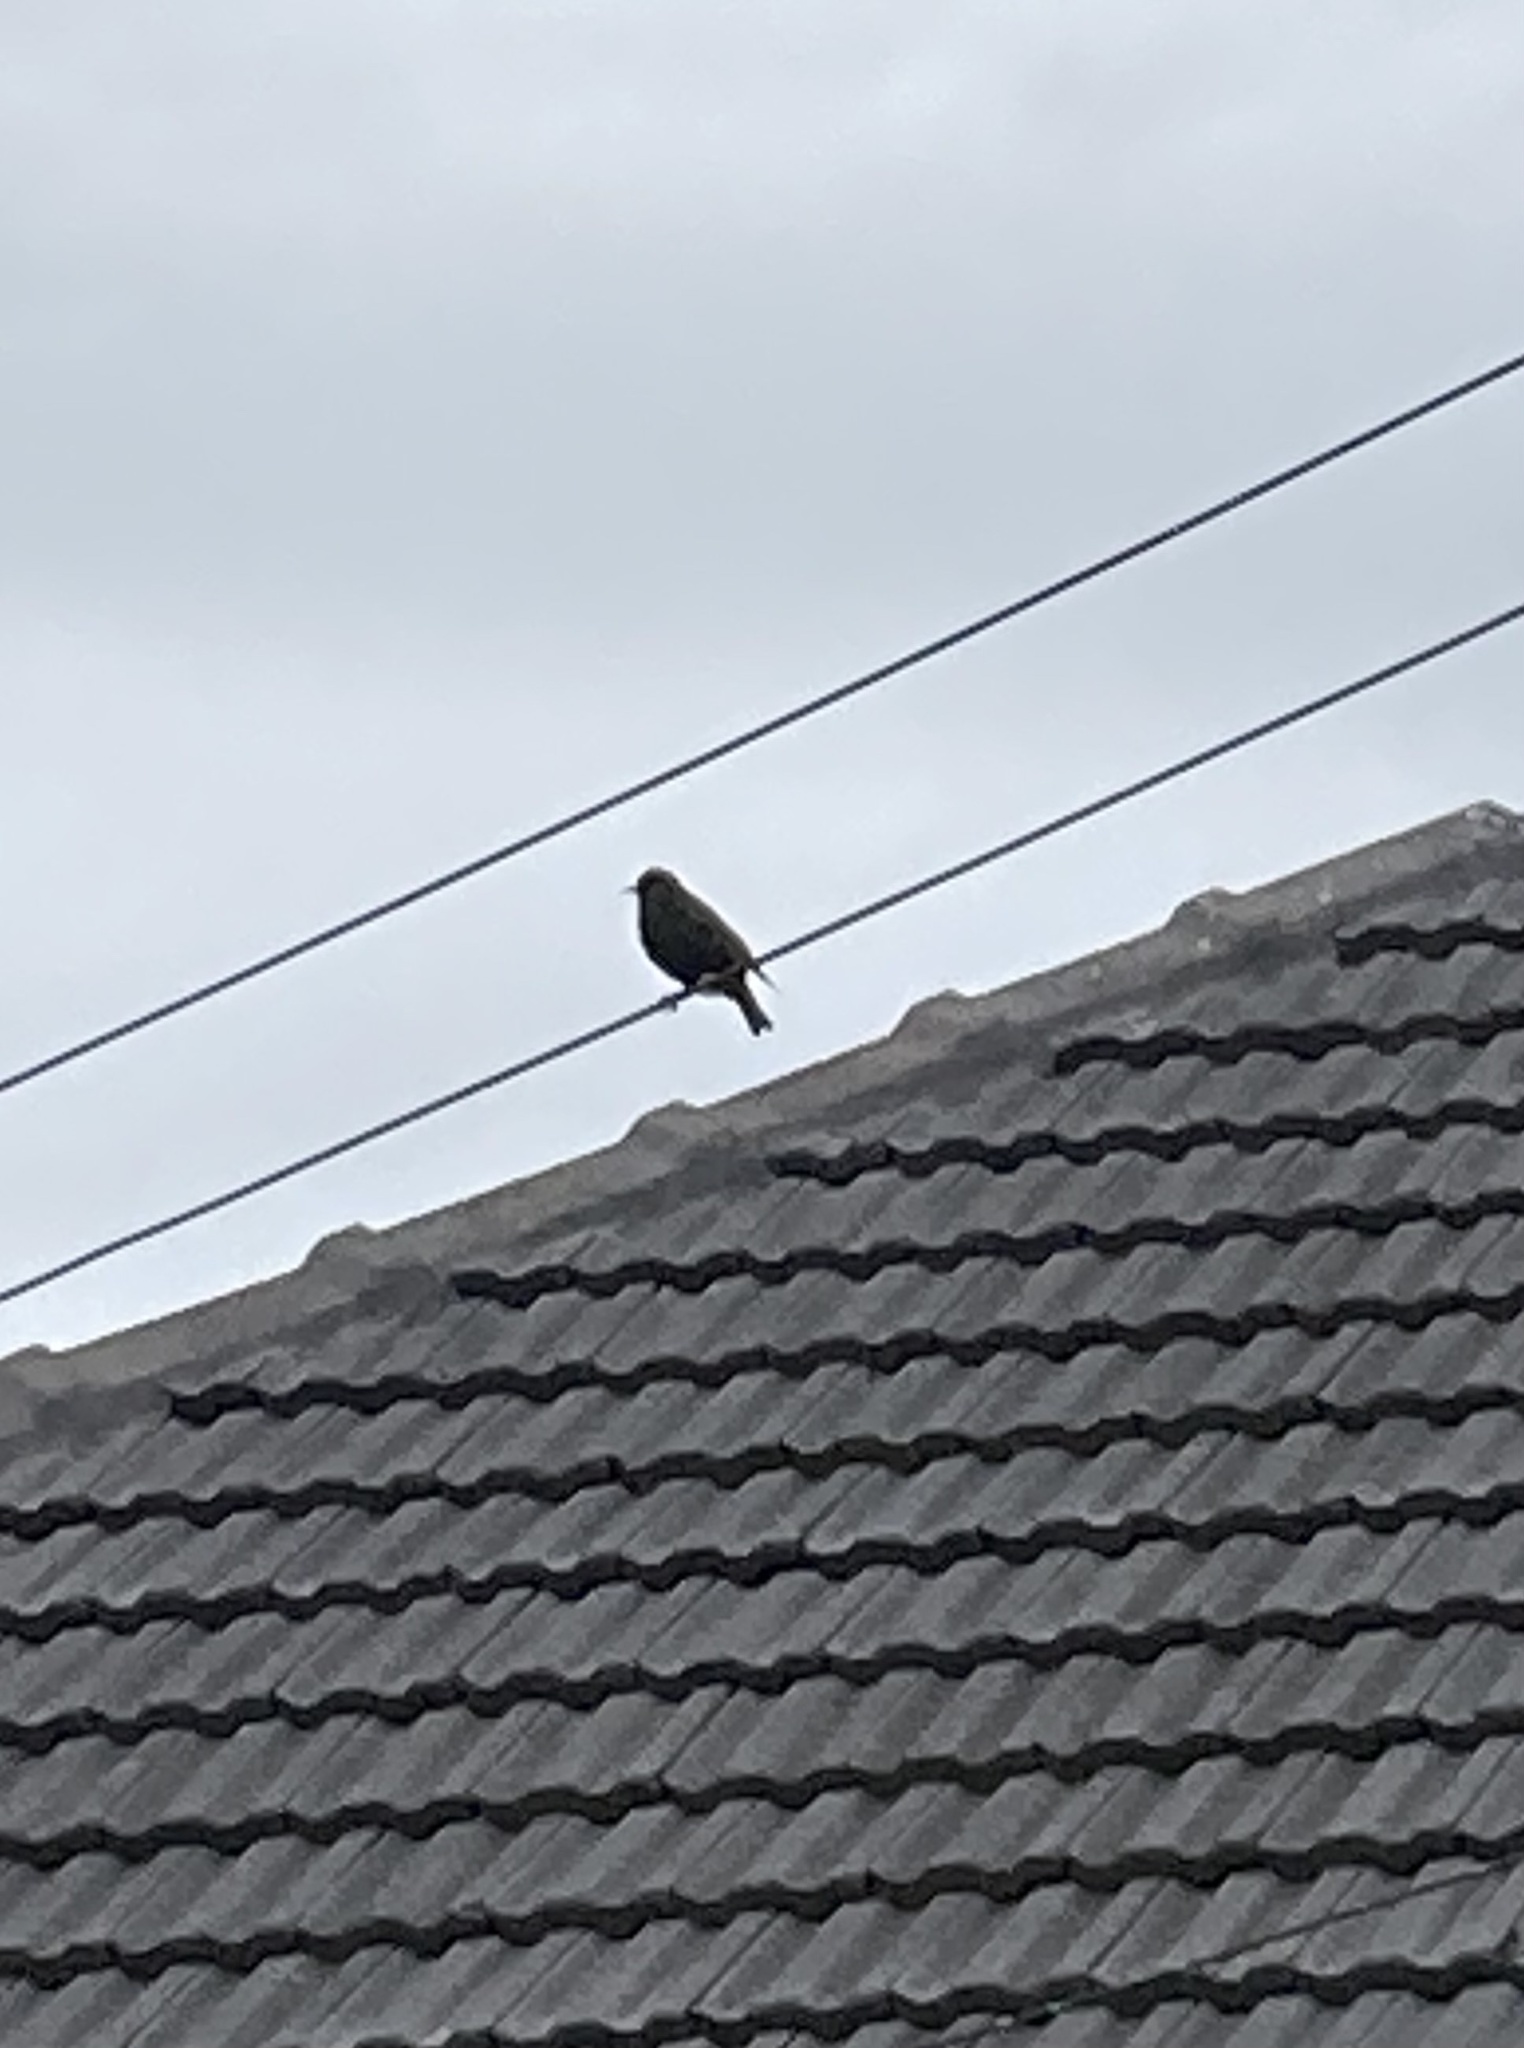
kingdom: Animalia
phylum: Chordata
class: Aves
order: Passeriformes
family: Sturnidae
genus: Sturnus
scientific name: Sturnus vulgaris
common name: Common starling
